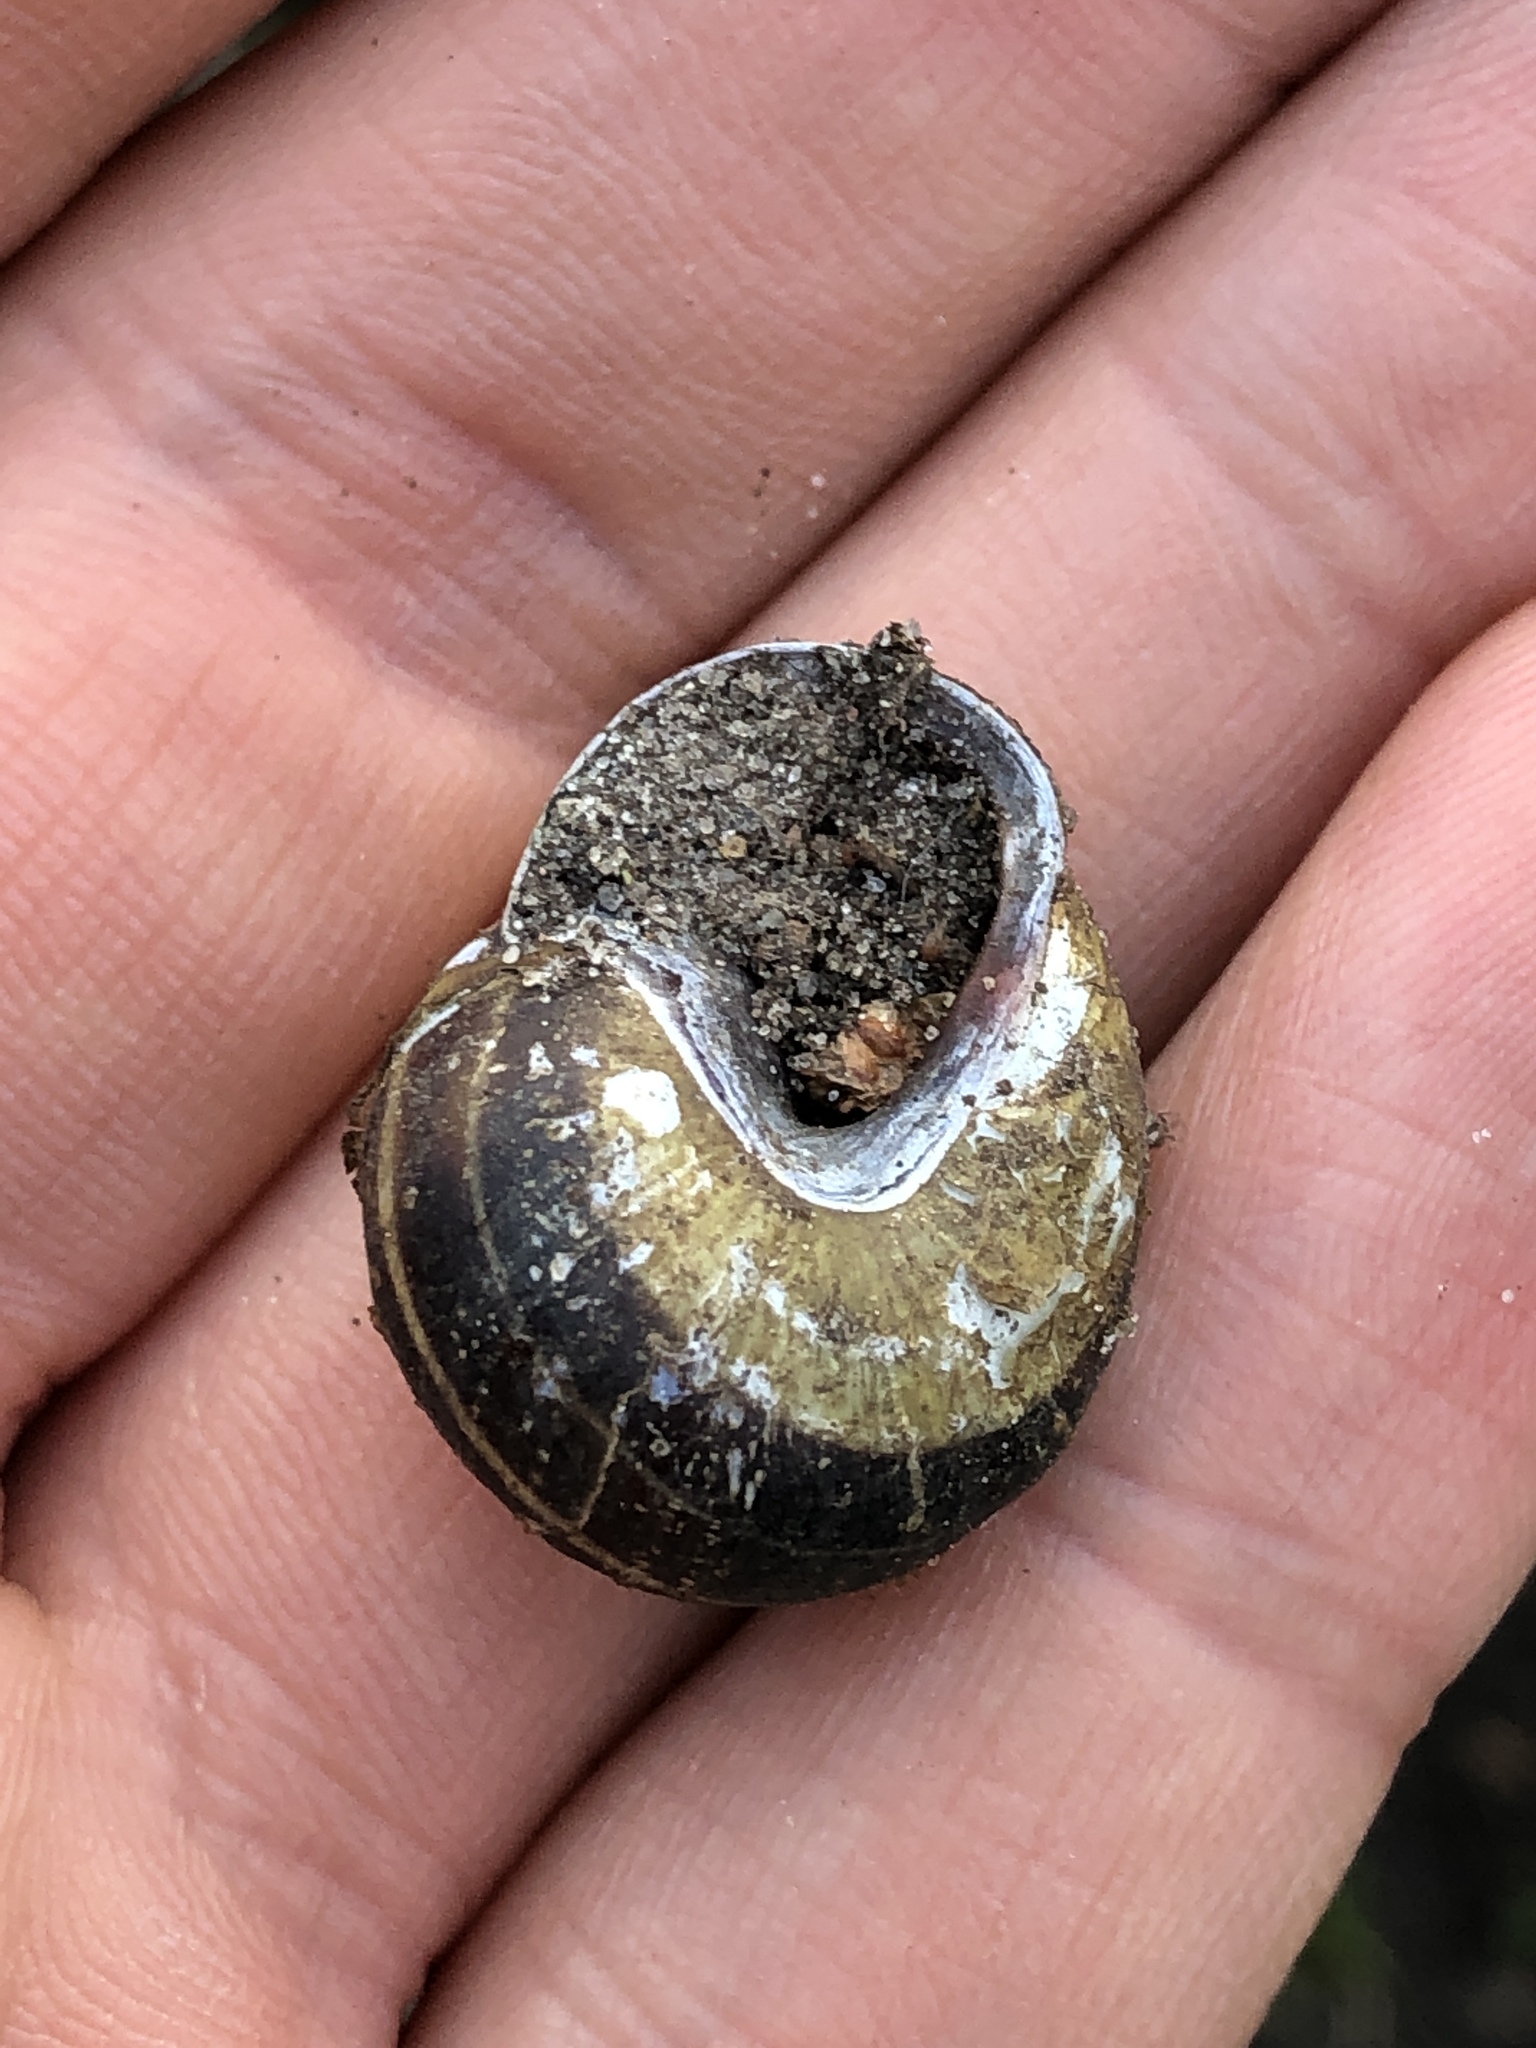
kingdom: Animalia
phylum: Mollusca
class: Gastropoda
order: Stylommatophora
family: Helicidae
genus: Cepaea
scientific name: Cepaea nemoralis
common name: Grovesnail
